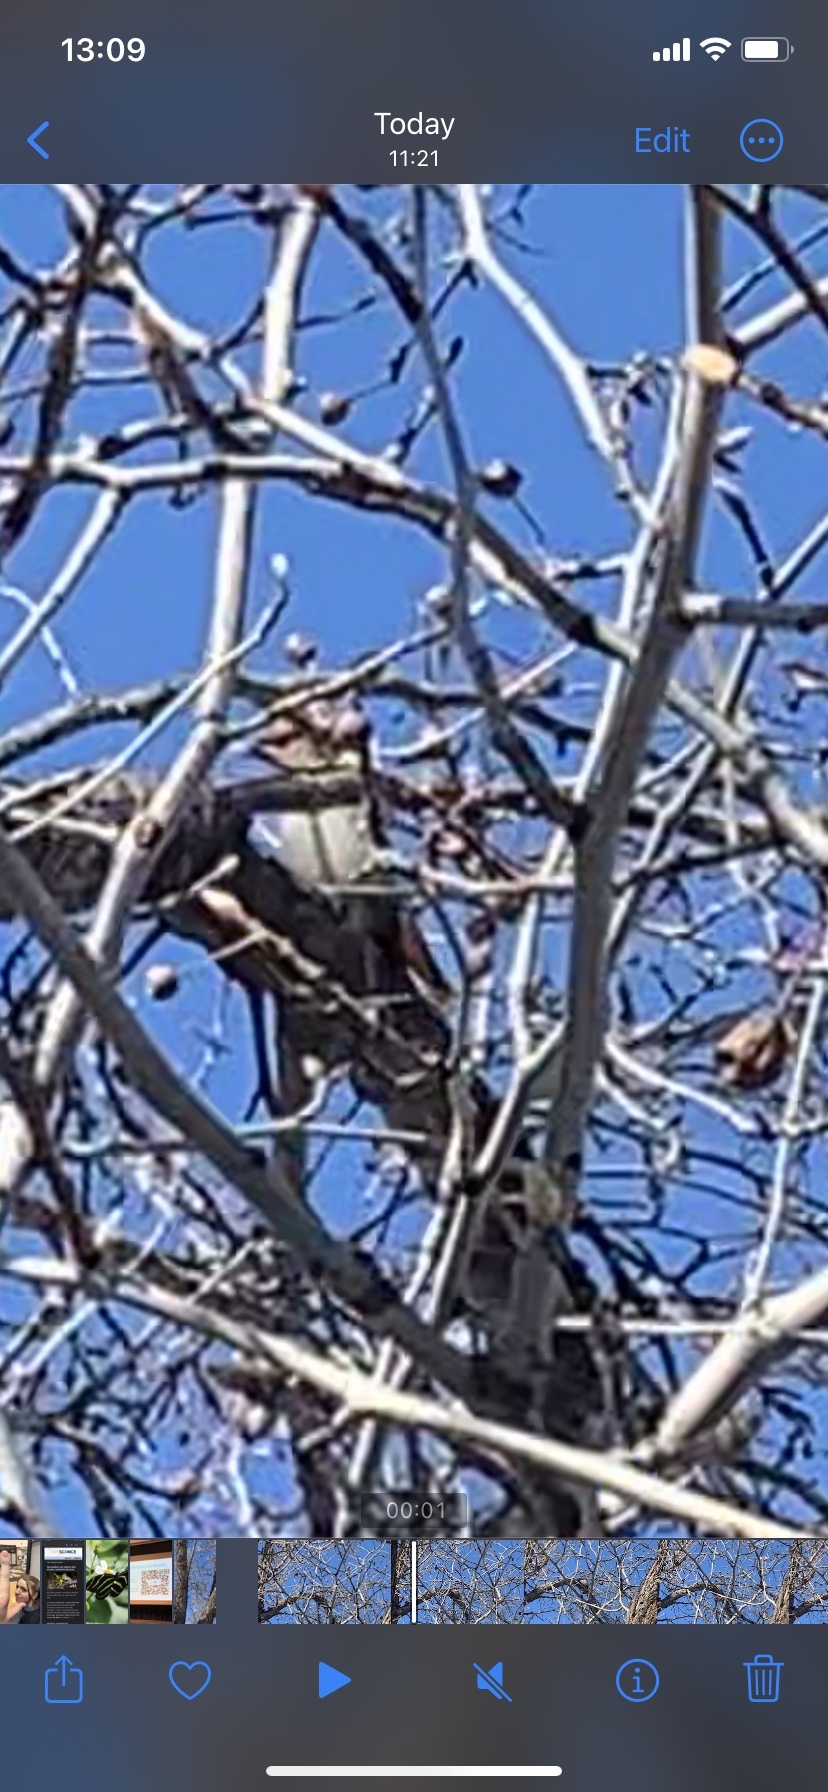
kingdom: Animalia
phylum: Chordata
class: Aves
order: Passeriformes
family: Bombycillidae
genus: Bombycilla
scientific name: Bombycilla garrulus
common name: Bohemian waxwing
